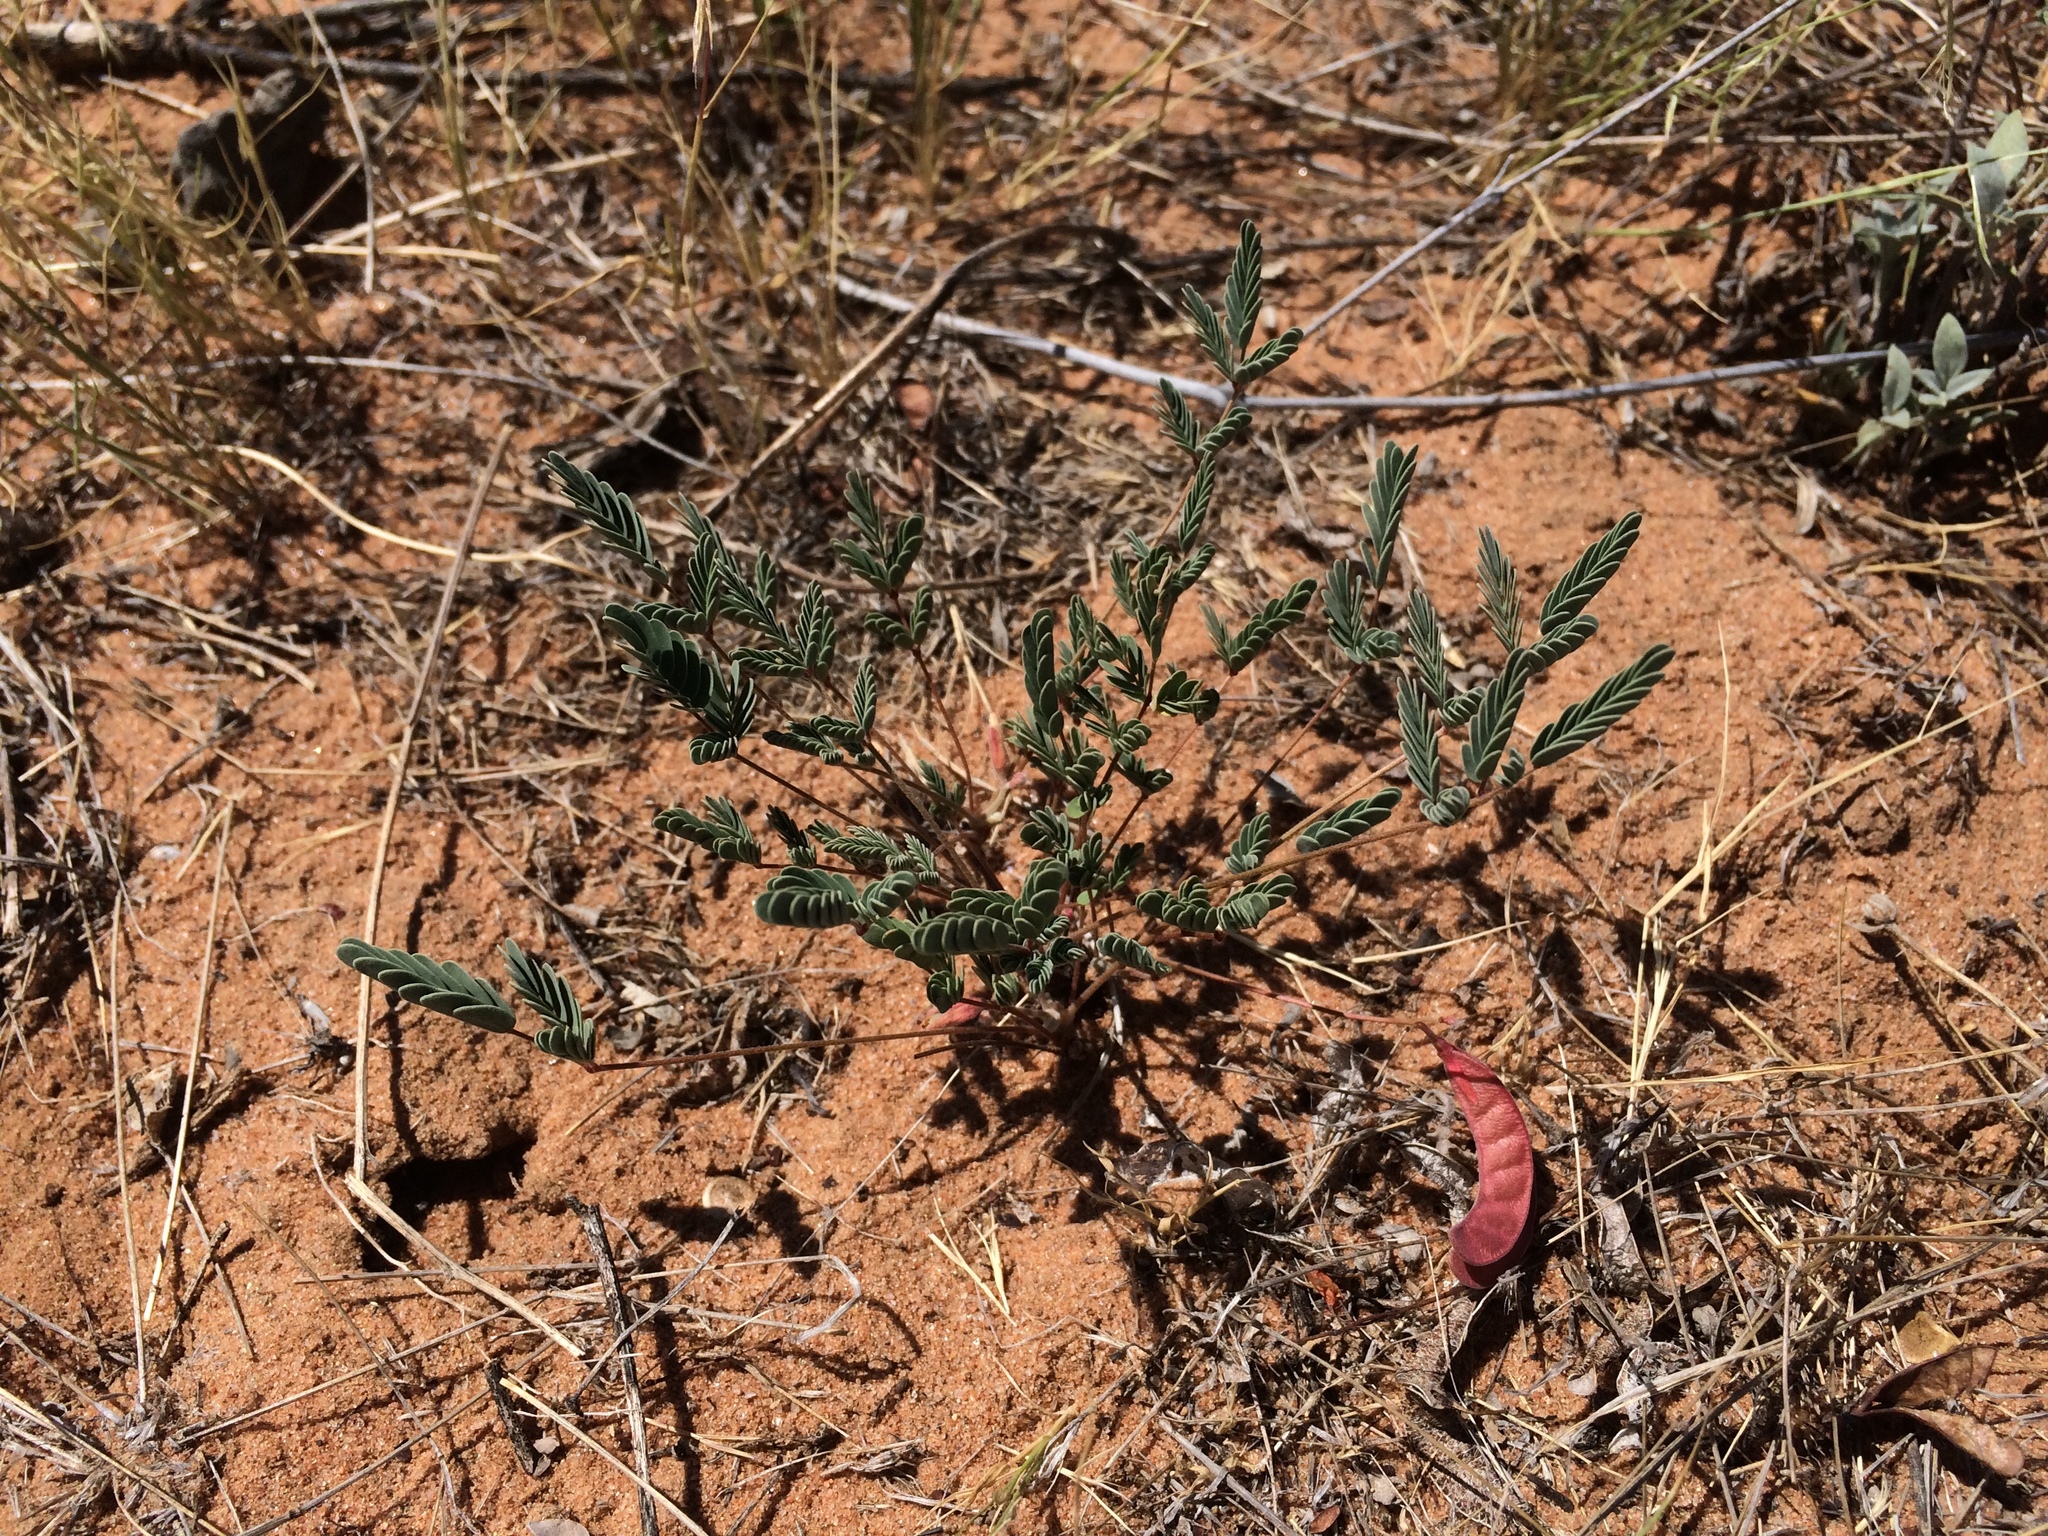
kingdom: Plantae
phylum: Tracheophyta
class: Magnoliopsida
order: Fabales
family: Fabaceae
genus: Hoffmannseggia
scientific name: Hoffmannseggia drepanocarpa
